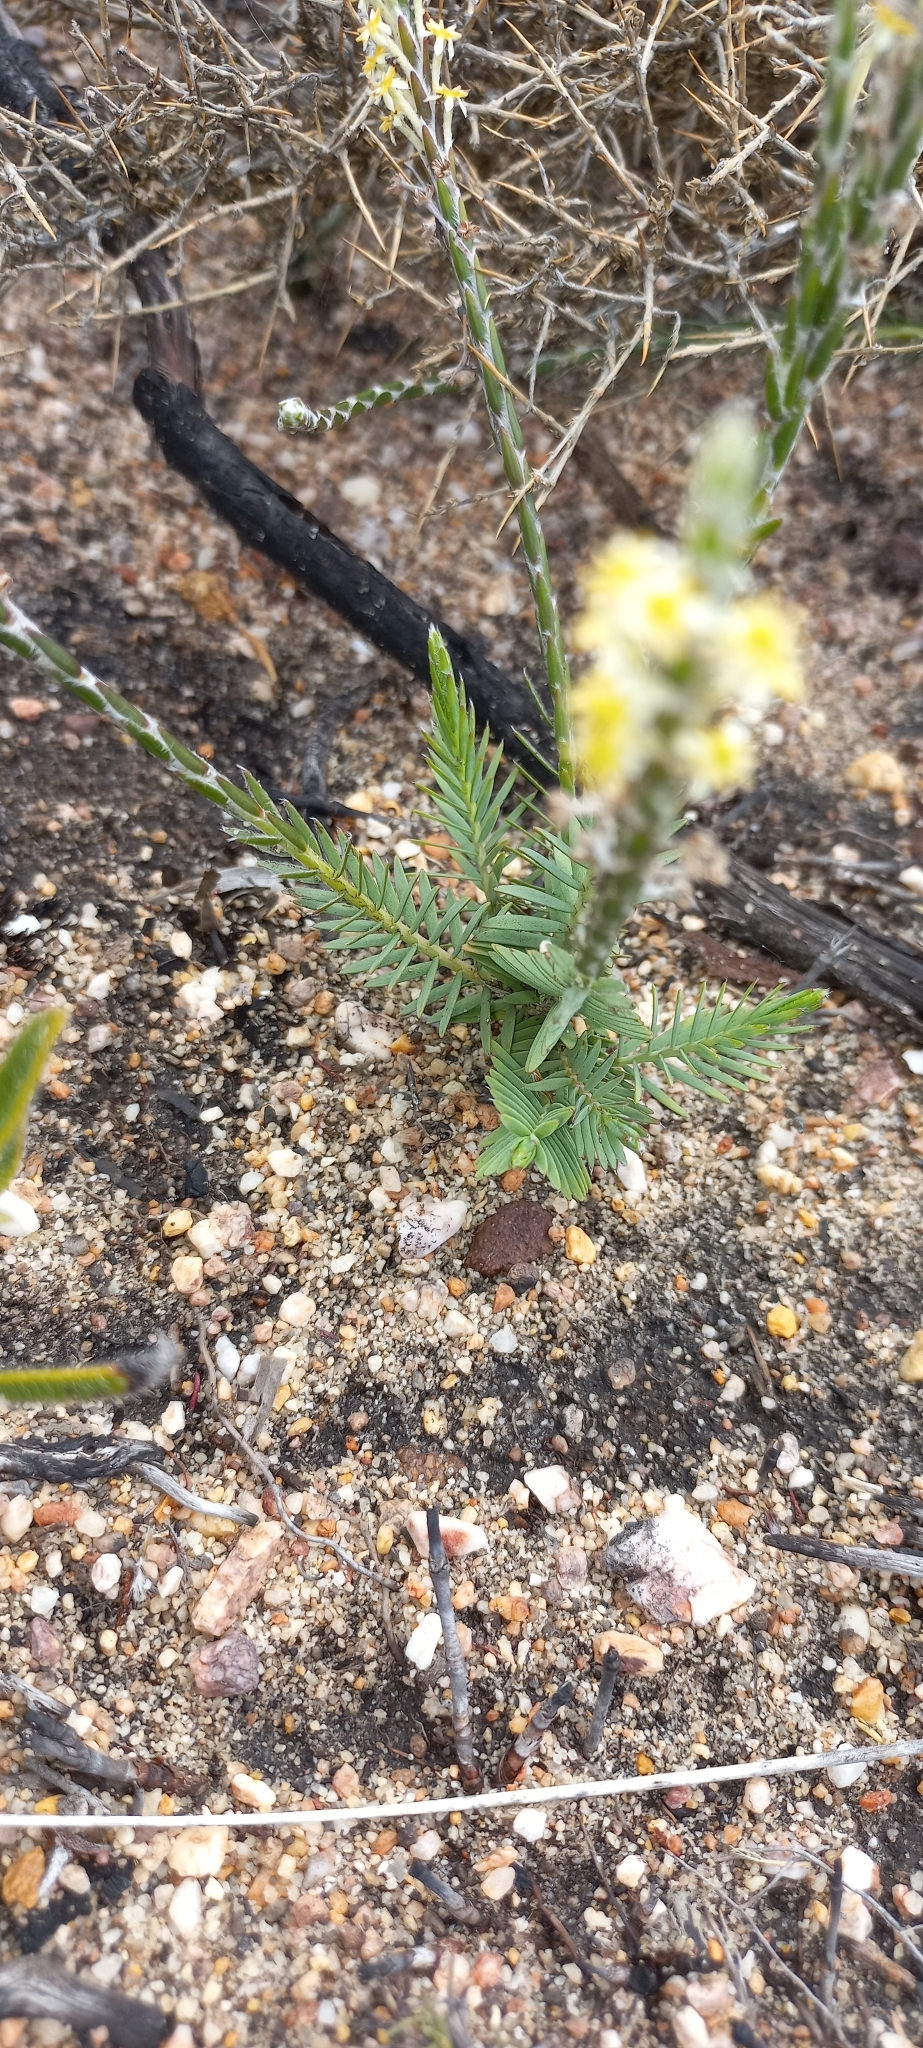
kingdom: Plantae
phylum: Tracheophyta
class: Magnoliopsida
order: Malvales
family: Thymelaeaceae
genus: Struthiola
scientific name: Struthiola ciliata
